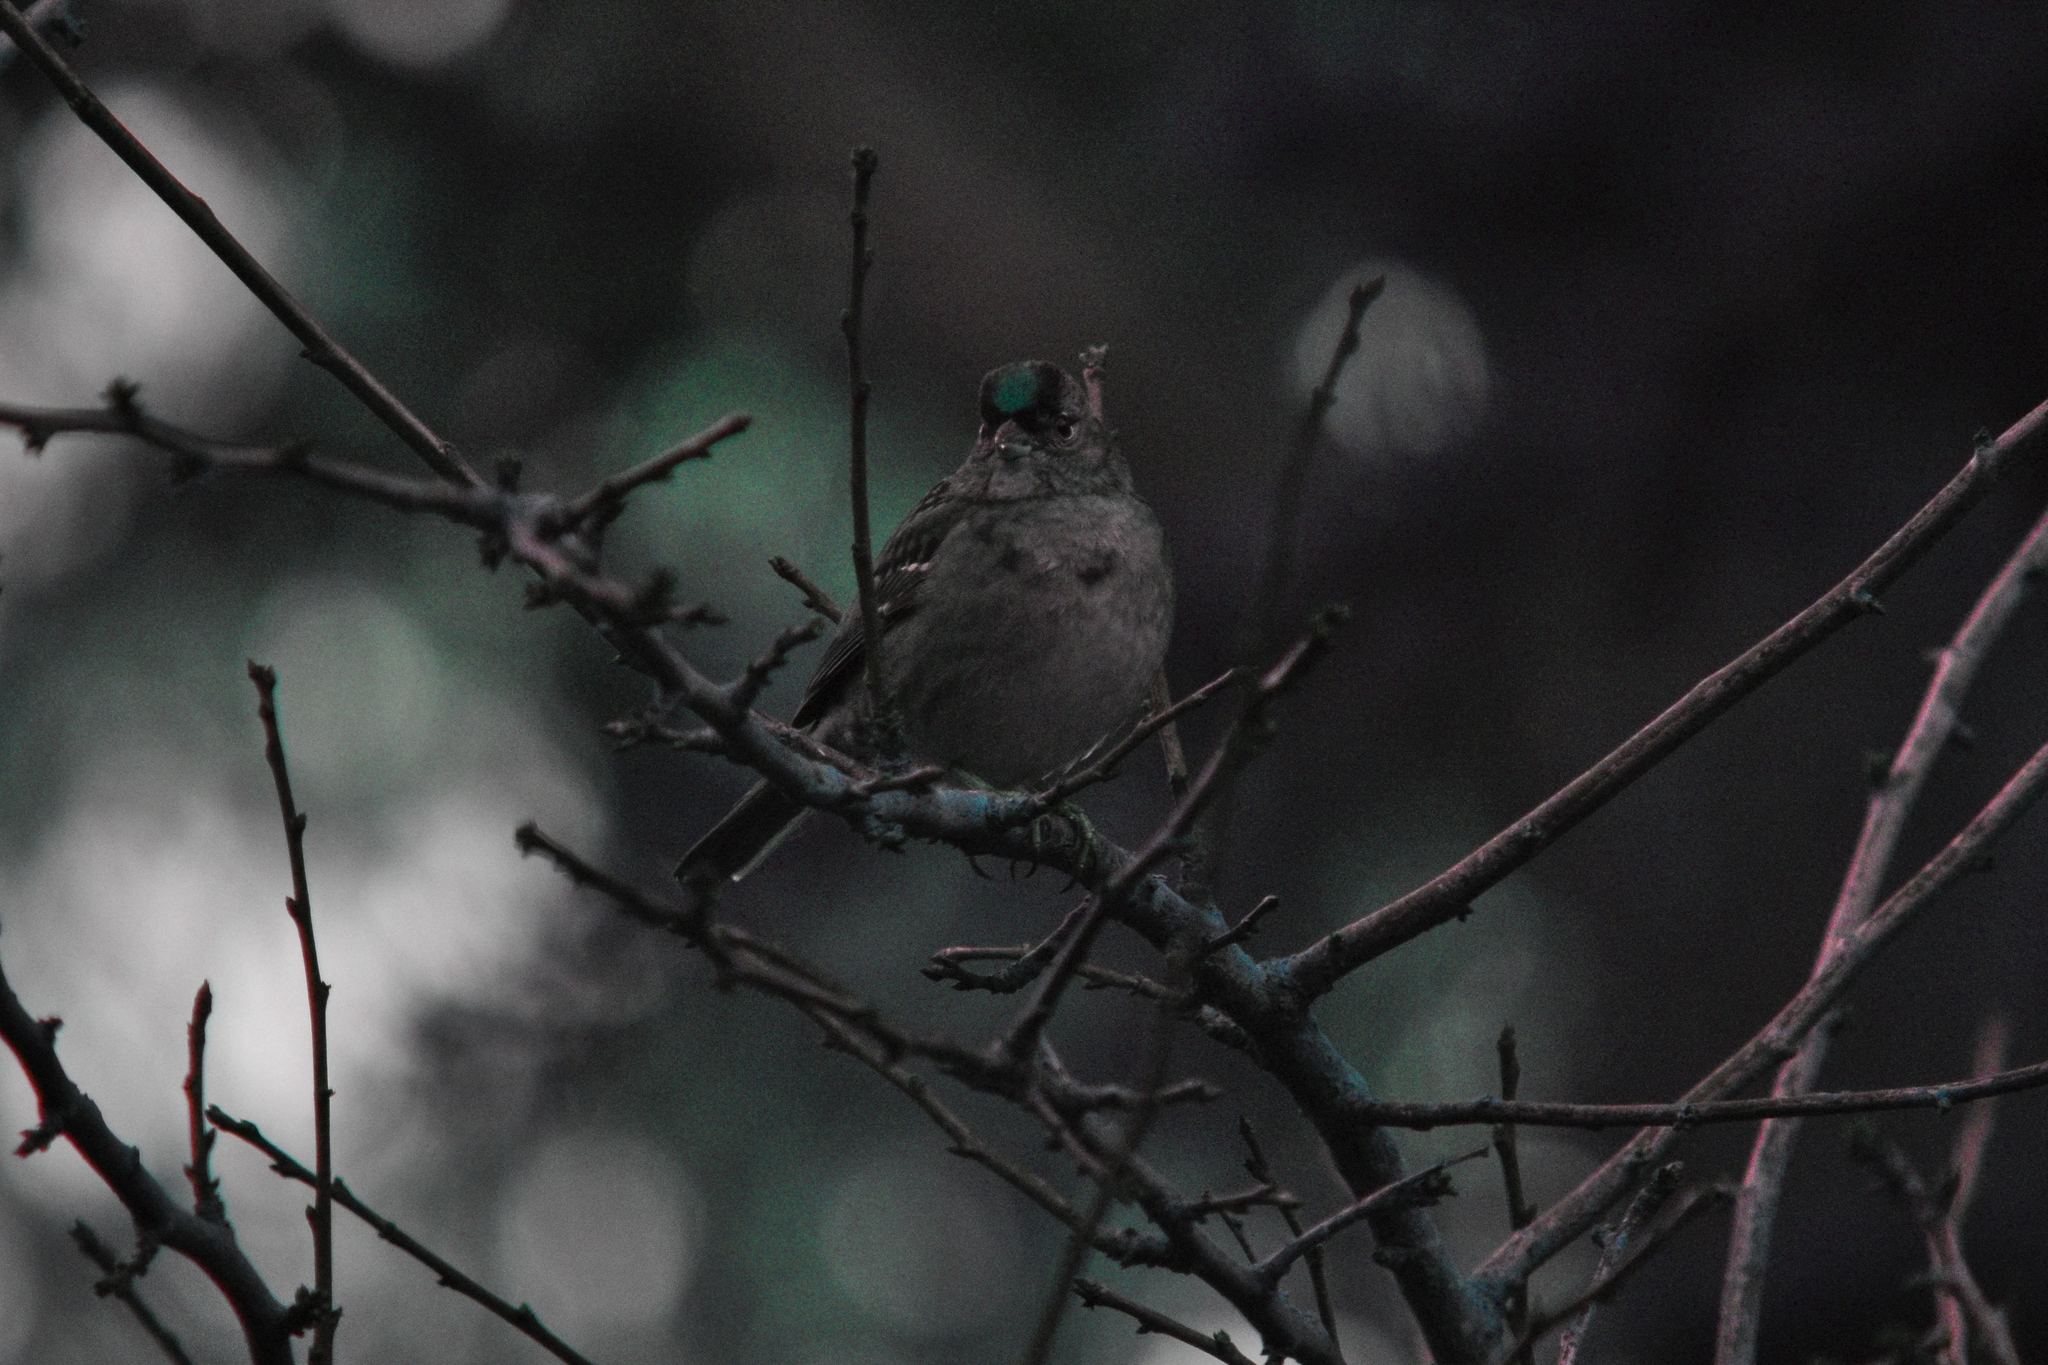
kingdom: Animalia
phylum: Chordata
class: Aves
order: Passeriformes
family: Passerellidae
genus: Zonotrichia
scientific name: Zonotrichia atricapilla
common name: Golden-crowned sparrow
